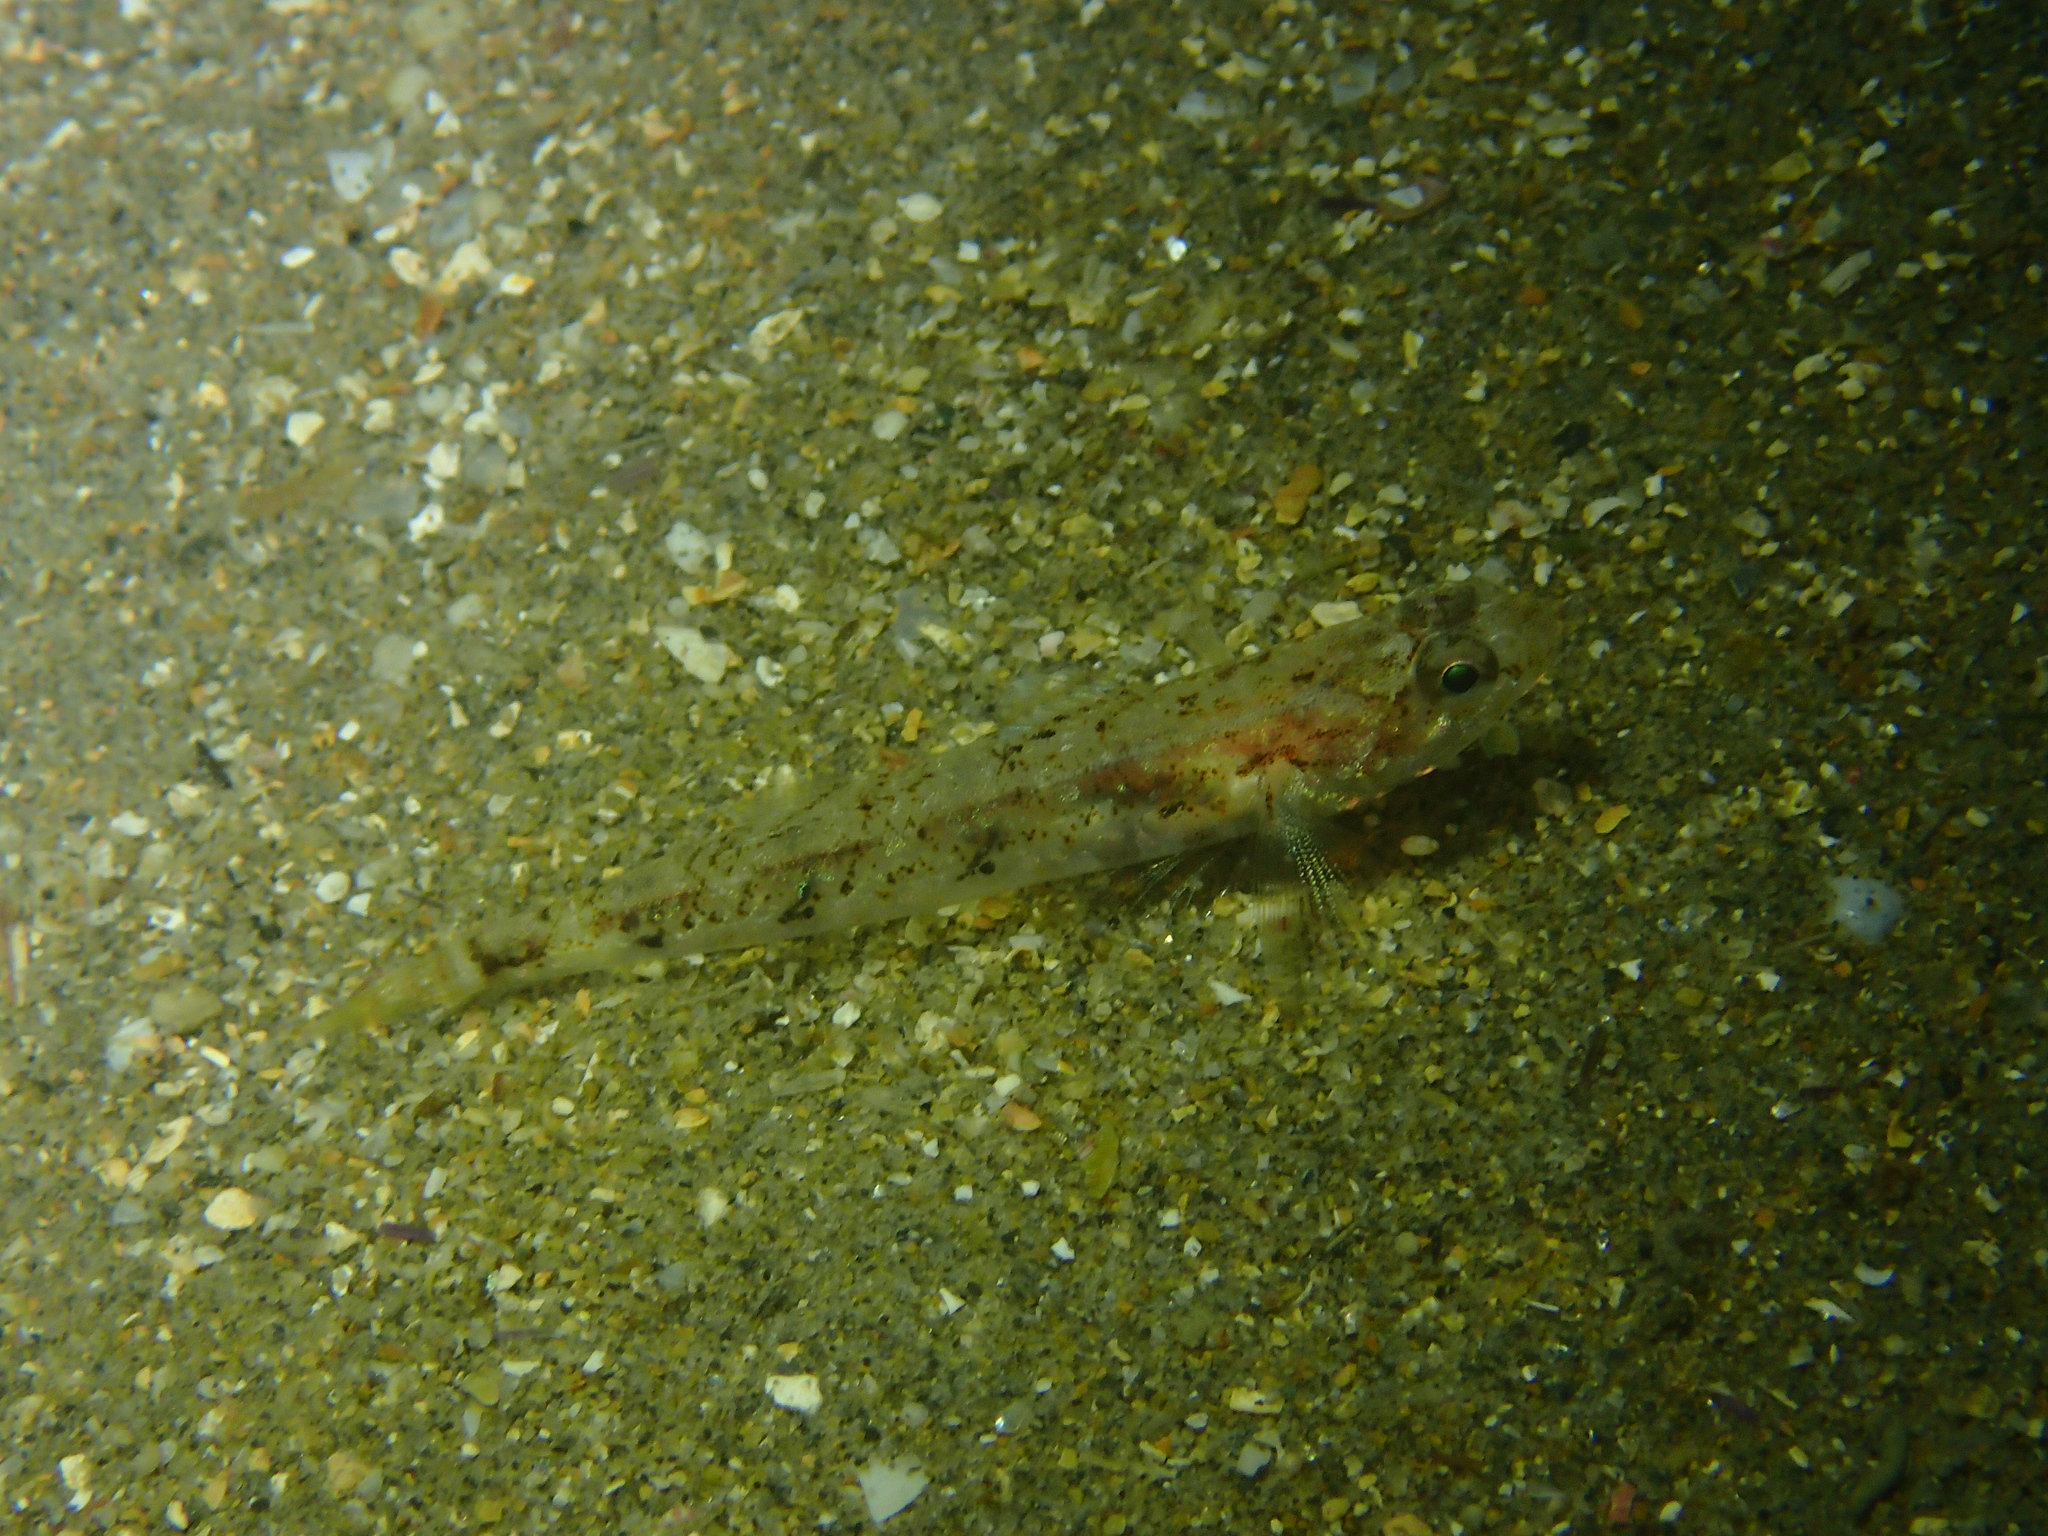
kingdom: Animalia
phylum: Chordata
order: Perciformes
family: Gobiidae
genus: Pomatoschistus
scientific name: Pomatoschistus pictus
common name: Painted goby
